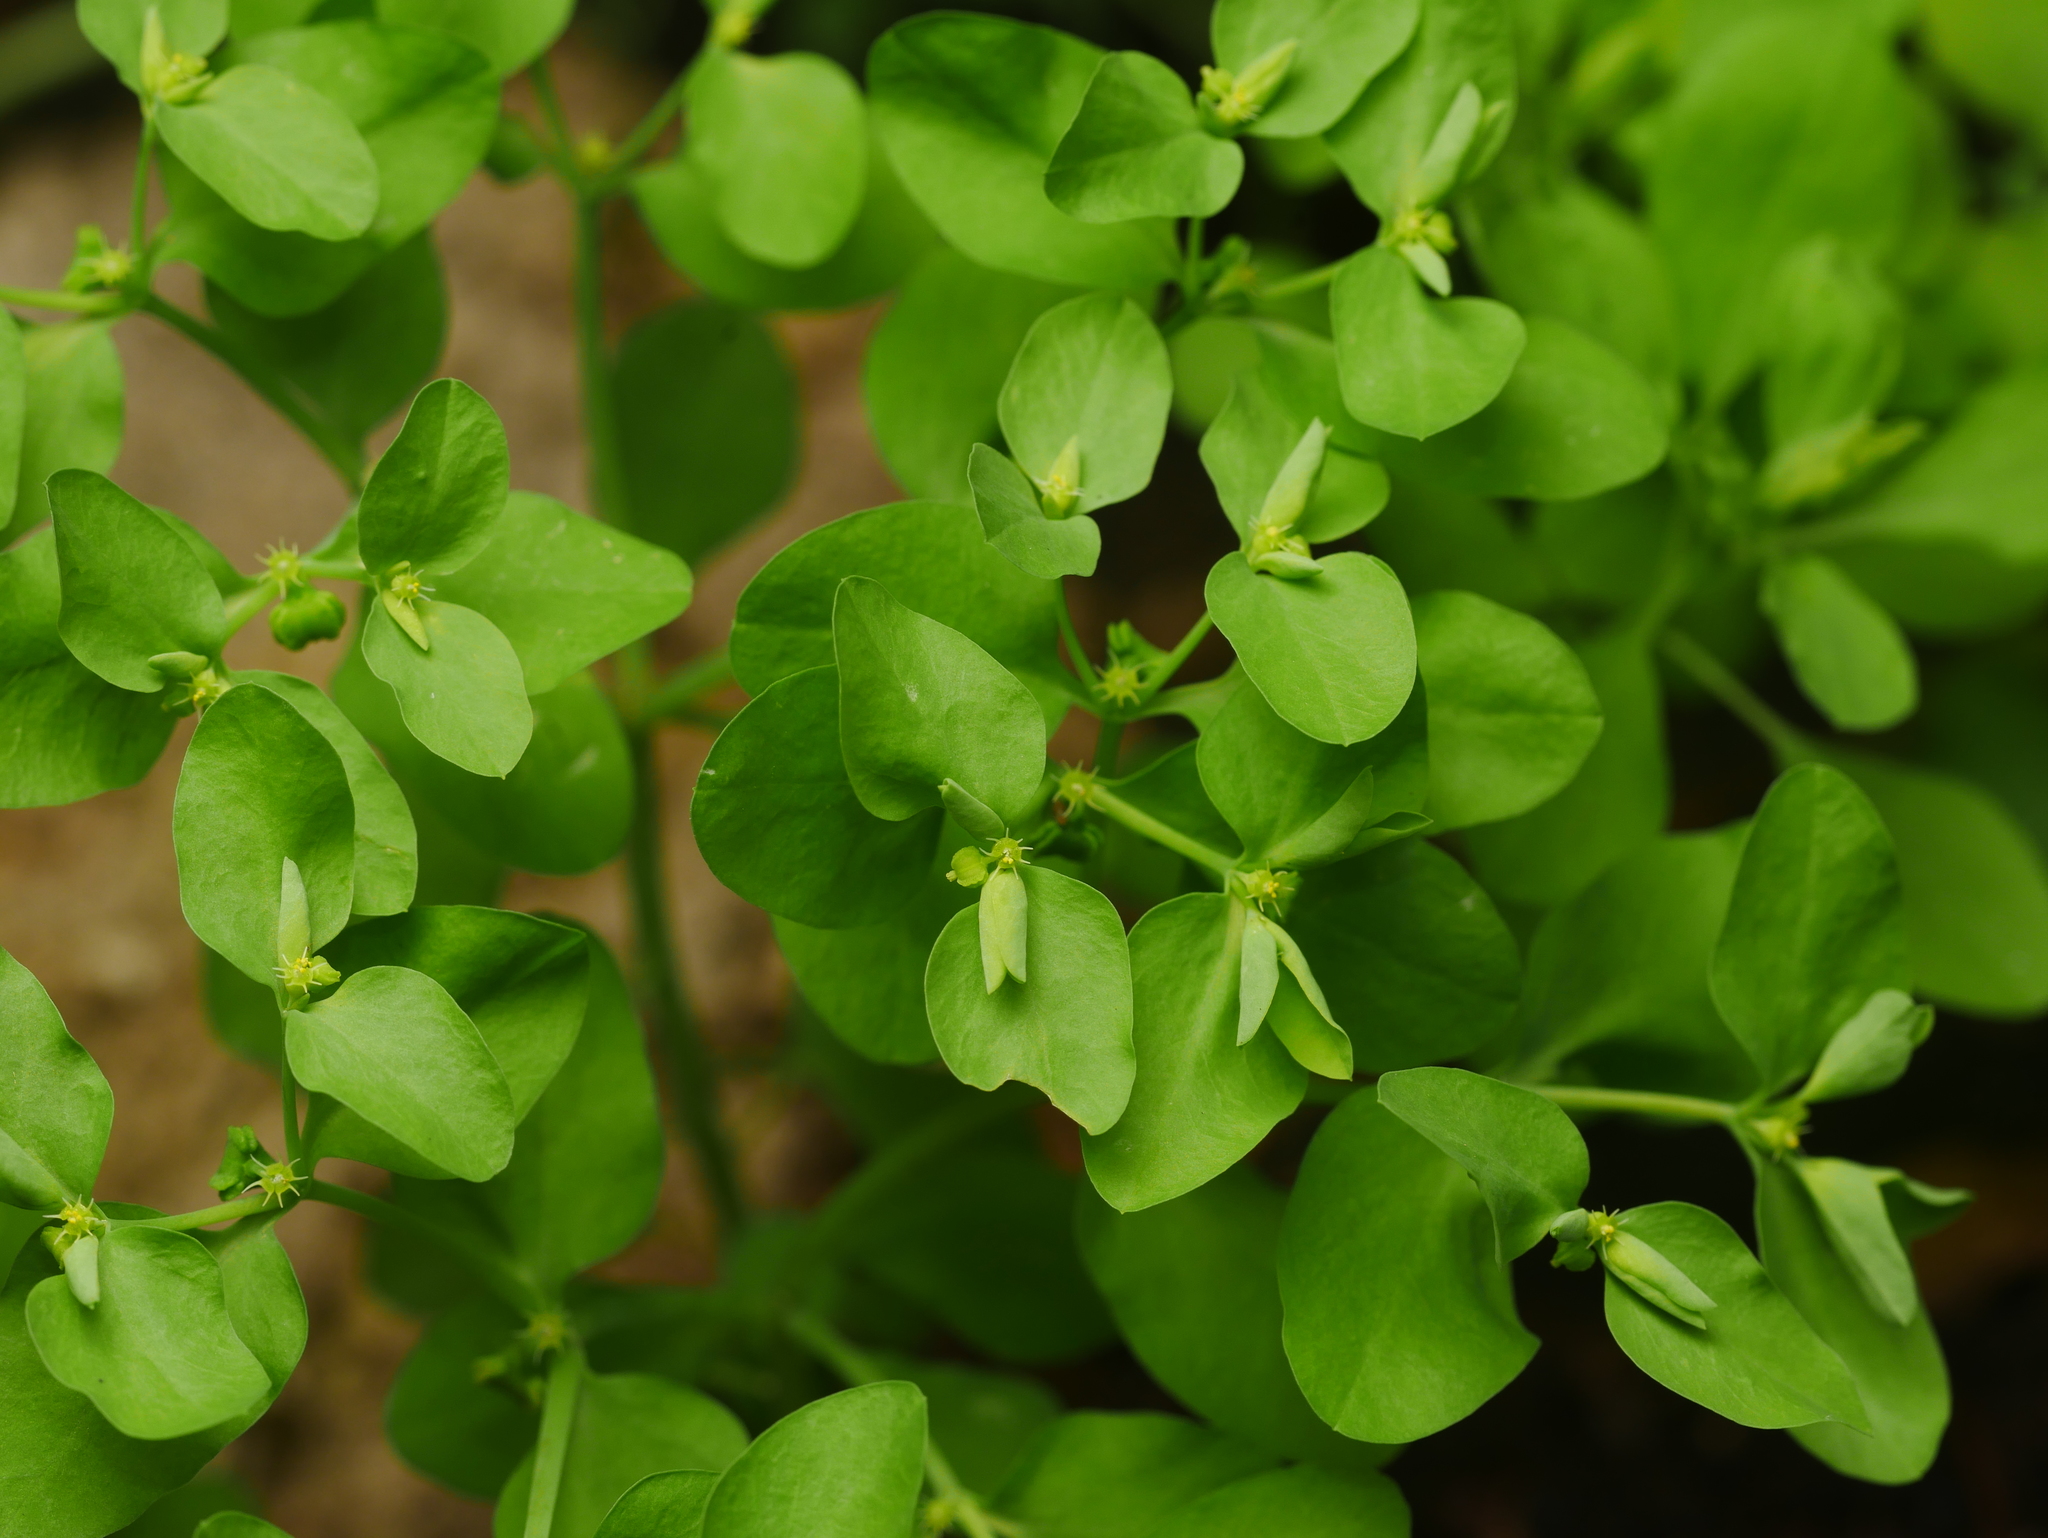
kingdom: Plantae
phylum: Tracheophyta
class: Magnoliopsida
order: Malpighiales
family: Euphorbiaceae
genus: Euphorbia
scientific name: Euphorbia peplus
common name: Petty spurge
